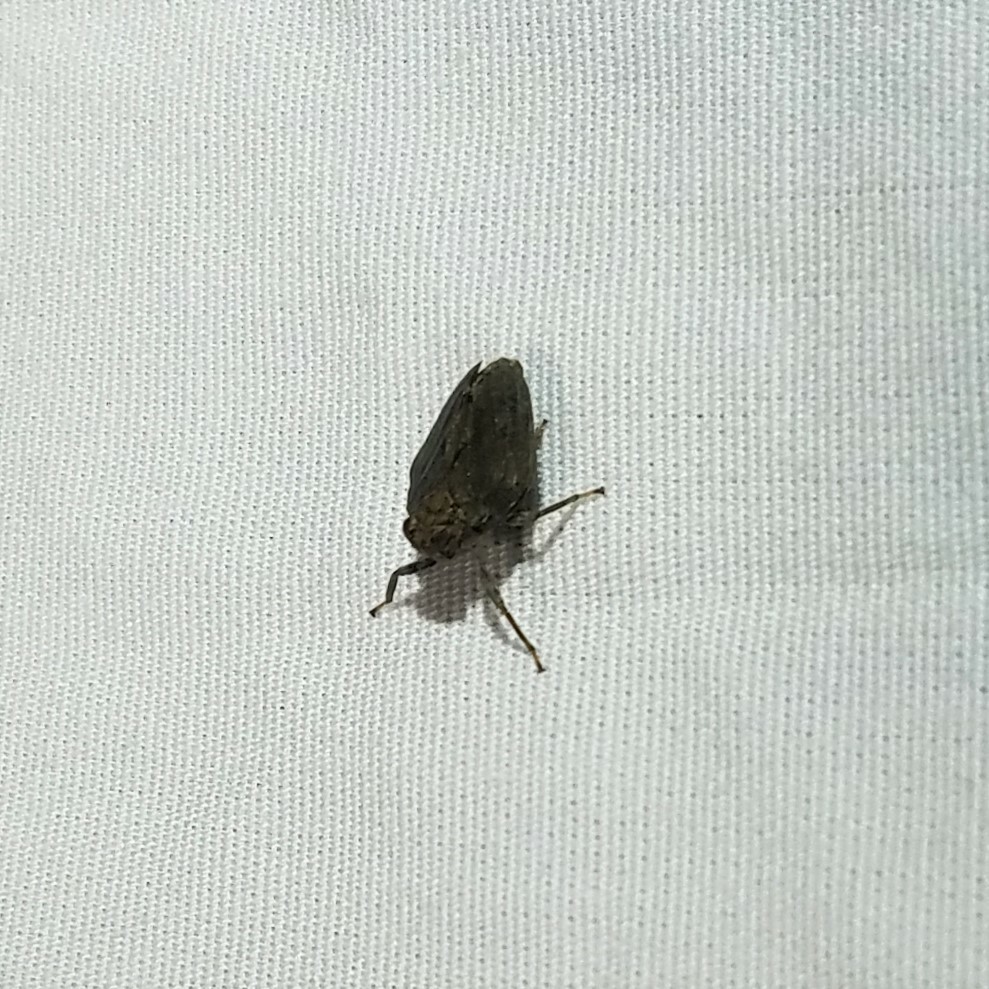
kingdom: Animalia
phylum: Arthropoda
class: Insecta
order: Hemiptera
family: Issidae
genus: Thionia
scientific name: Thionia elliptica
